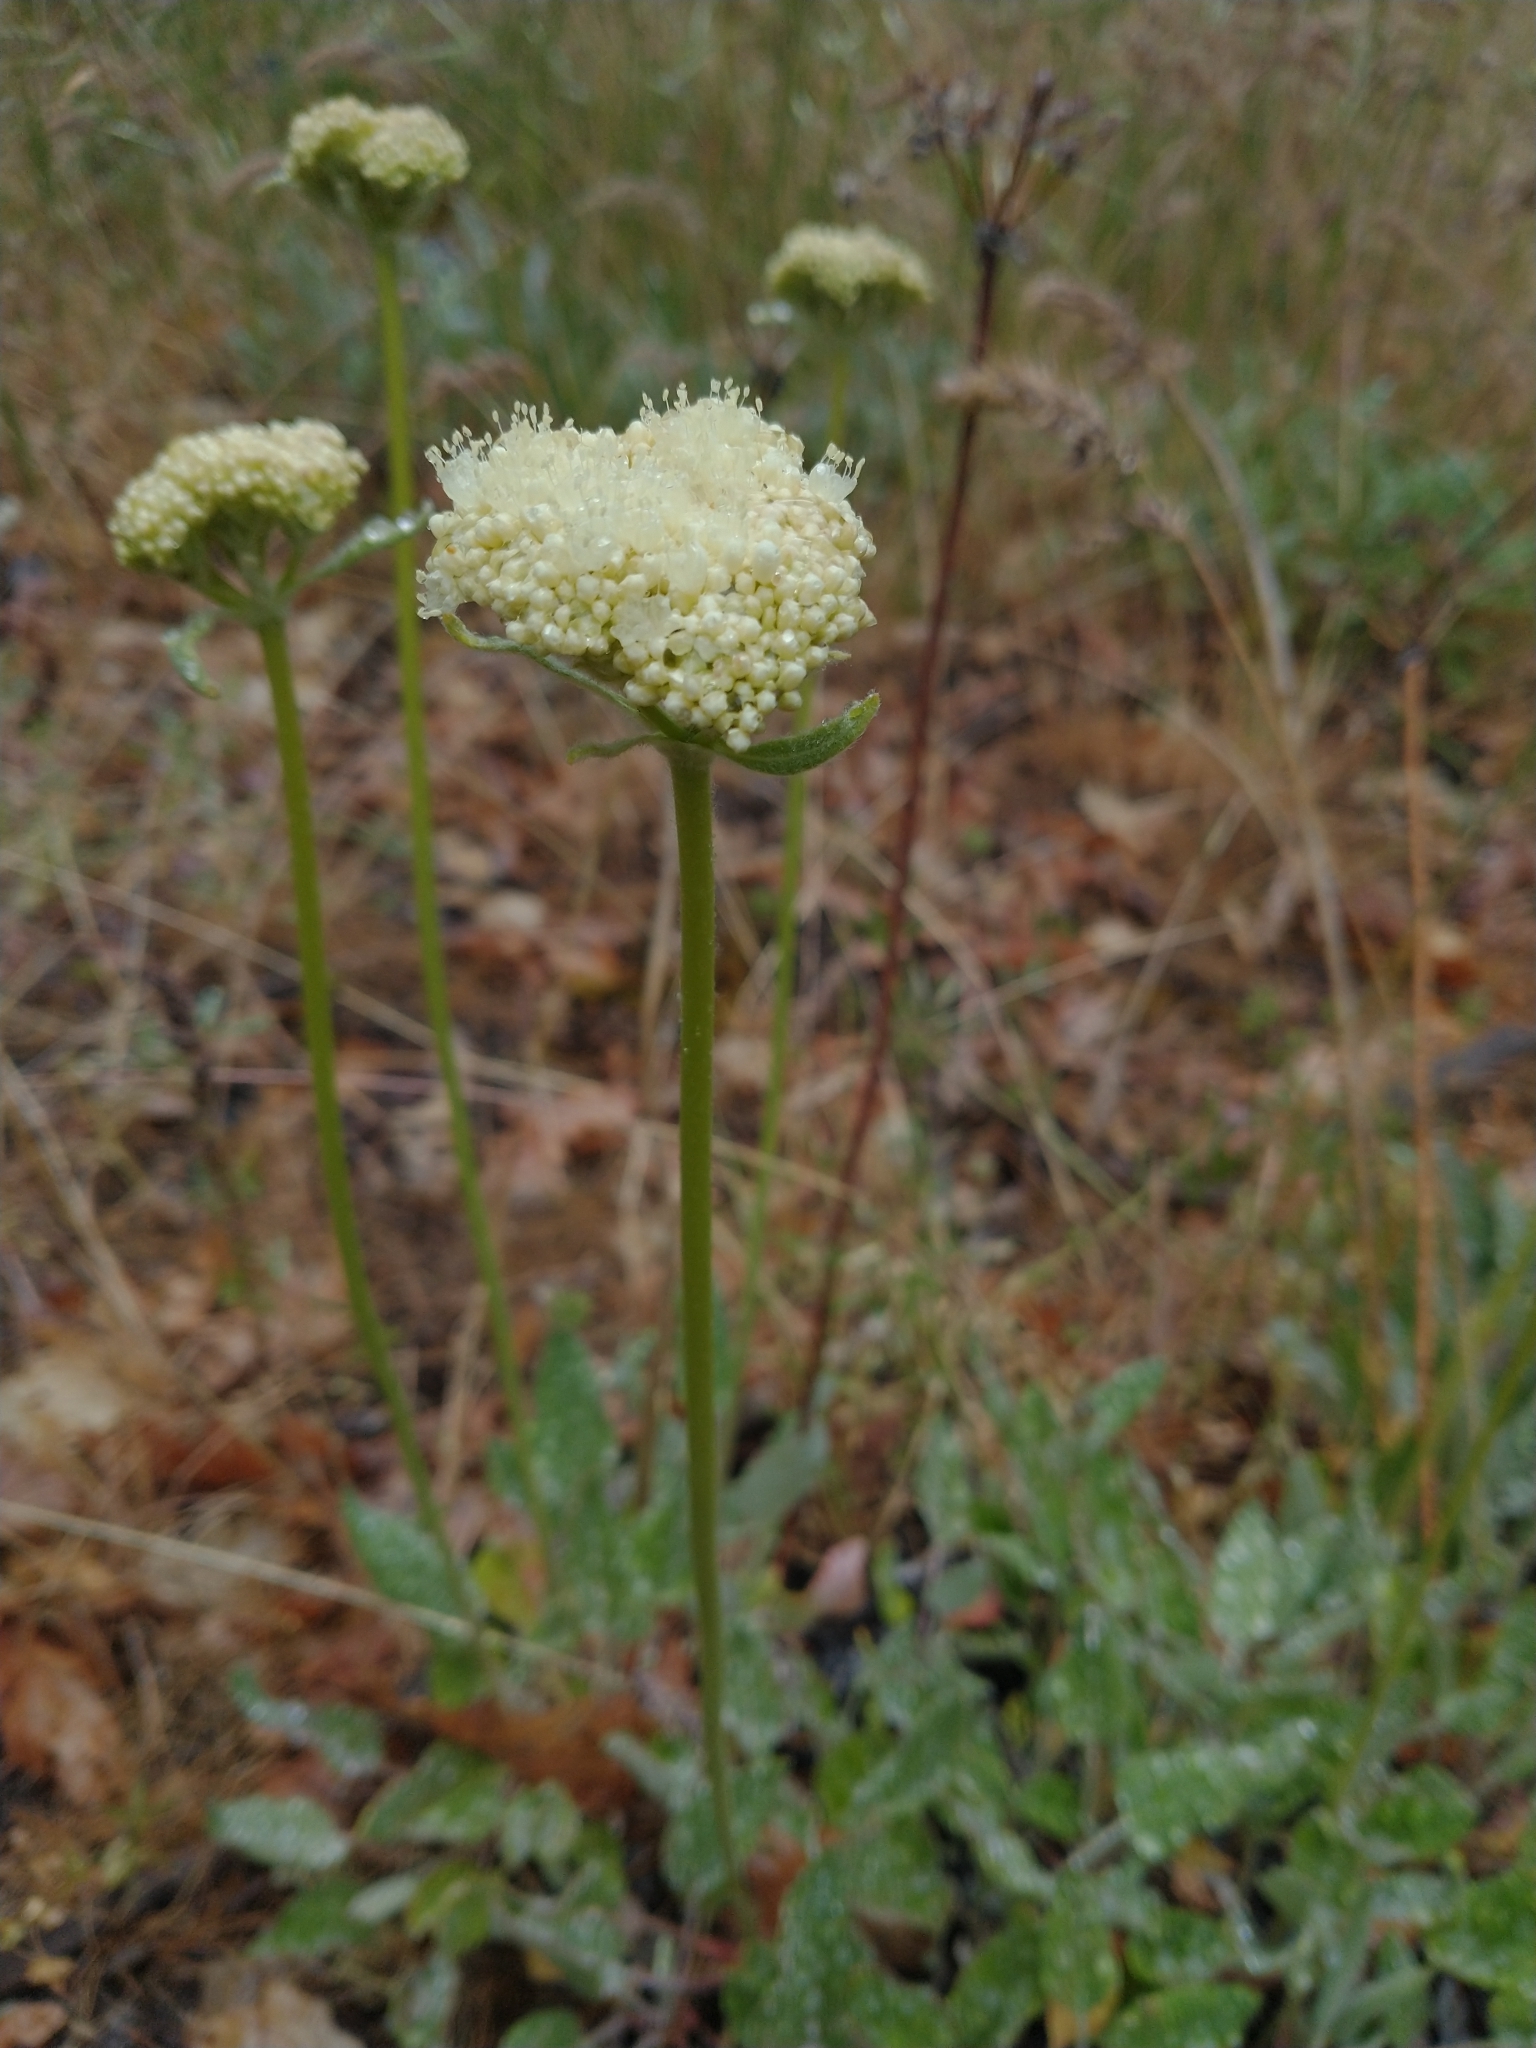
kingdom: Plantae
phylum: Tracheophyta
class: Magnoliopsida
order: Caryophyllales
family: Polygonaceae
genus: Eriogonum
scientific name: Eriogonum compositum
